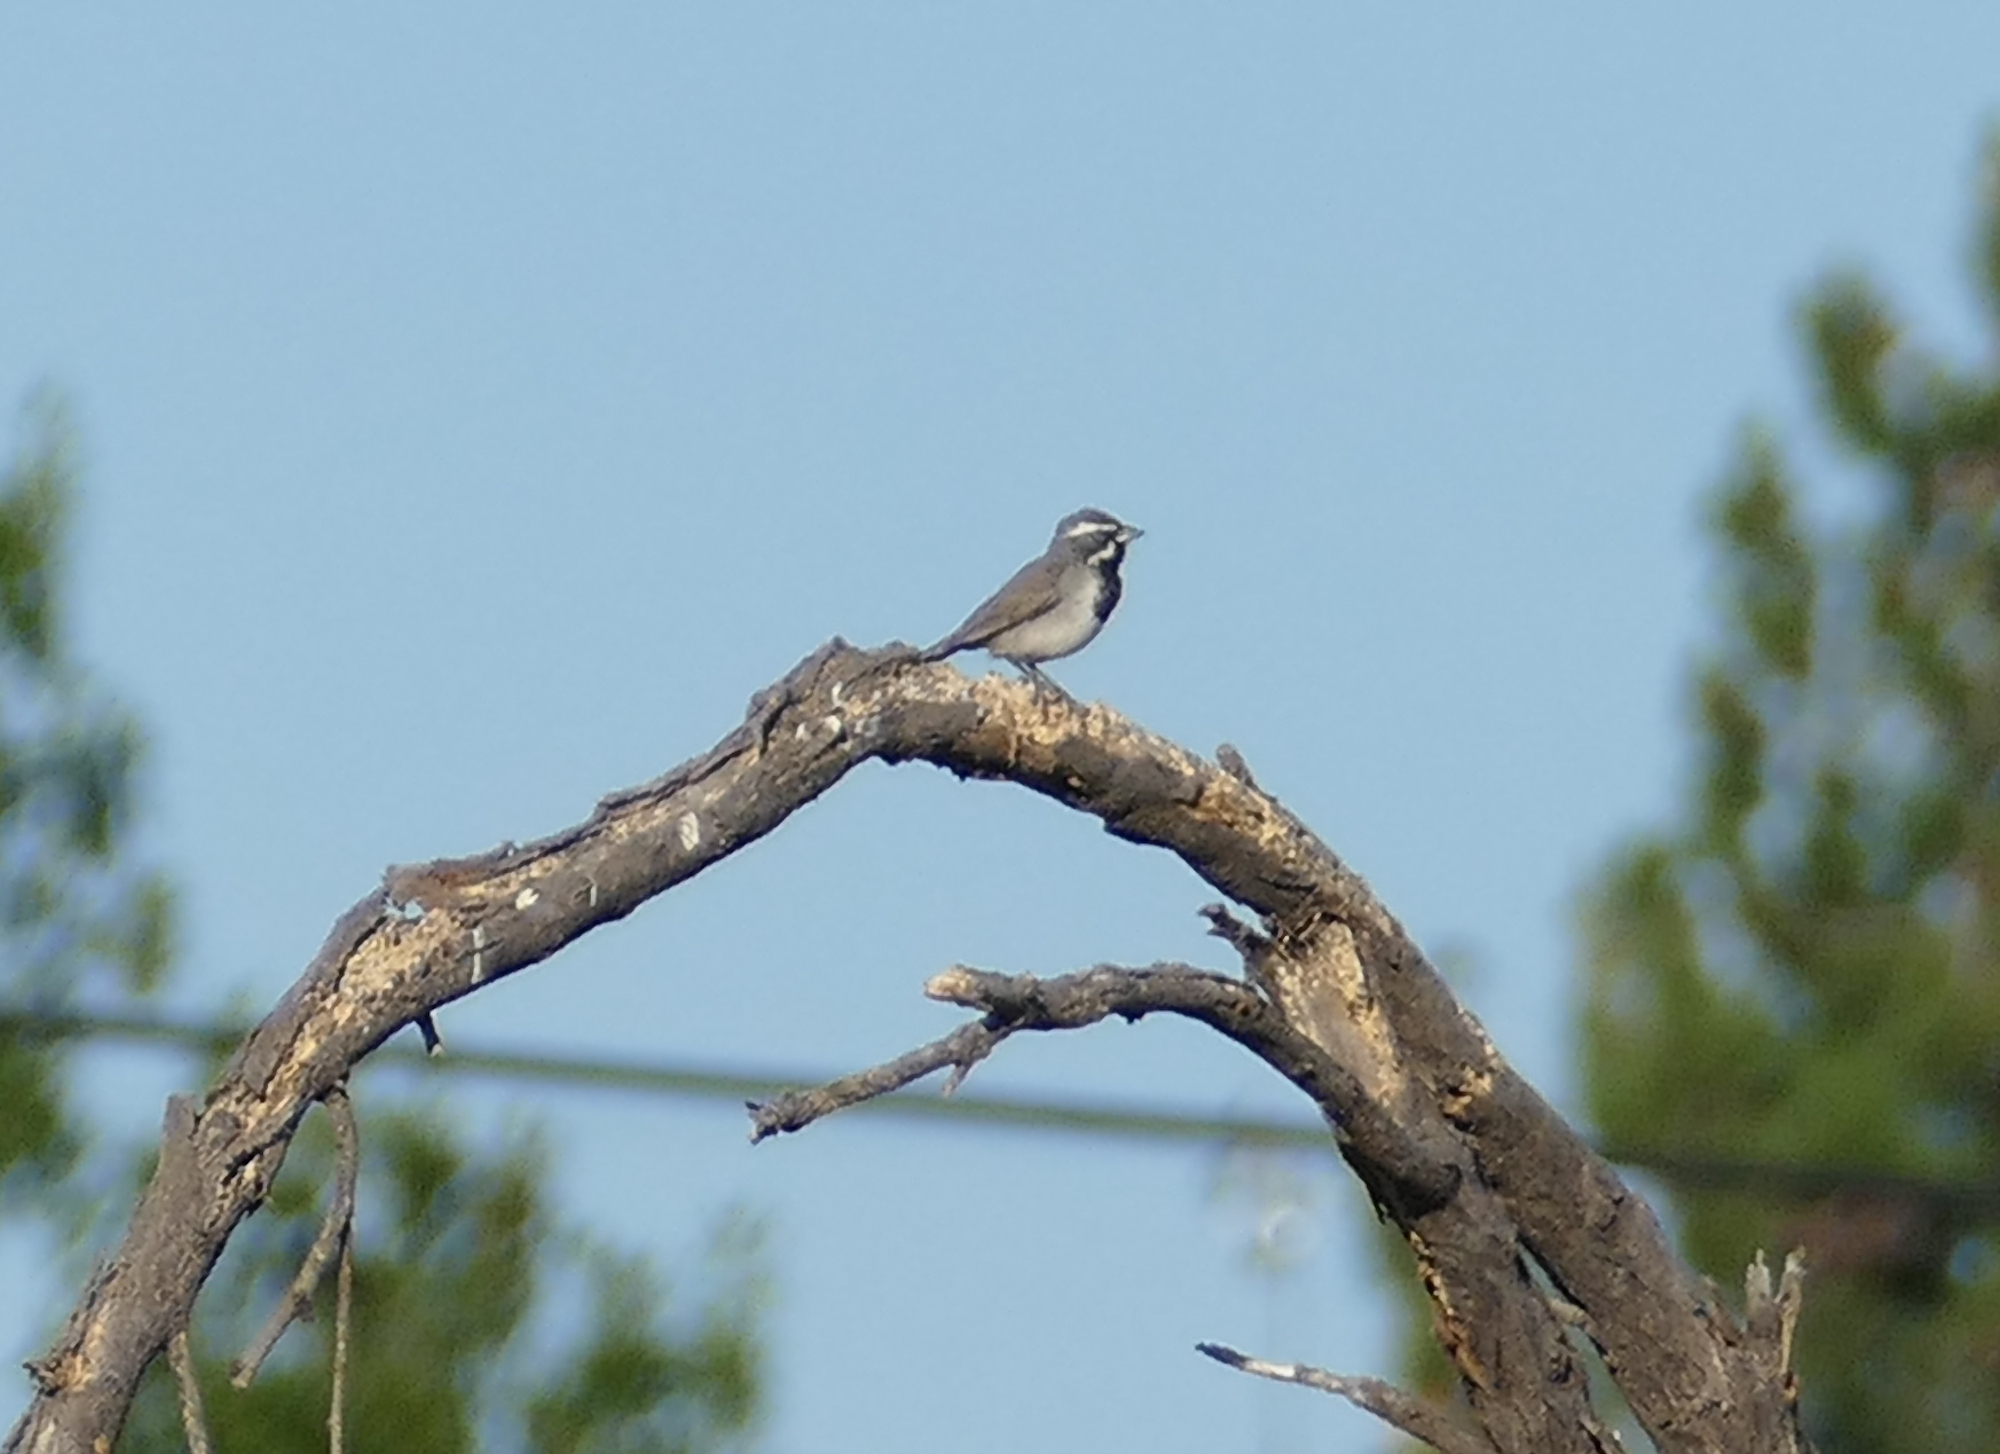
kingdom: Animalia
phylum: Chordata
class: Aves
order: Passeriformes
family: Passerellidae
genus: Amphispiza
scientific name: Amphispiza bilineata
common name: Black-throated sparrow
